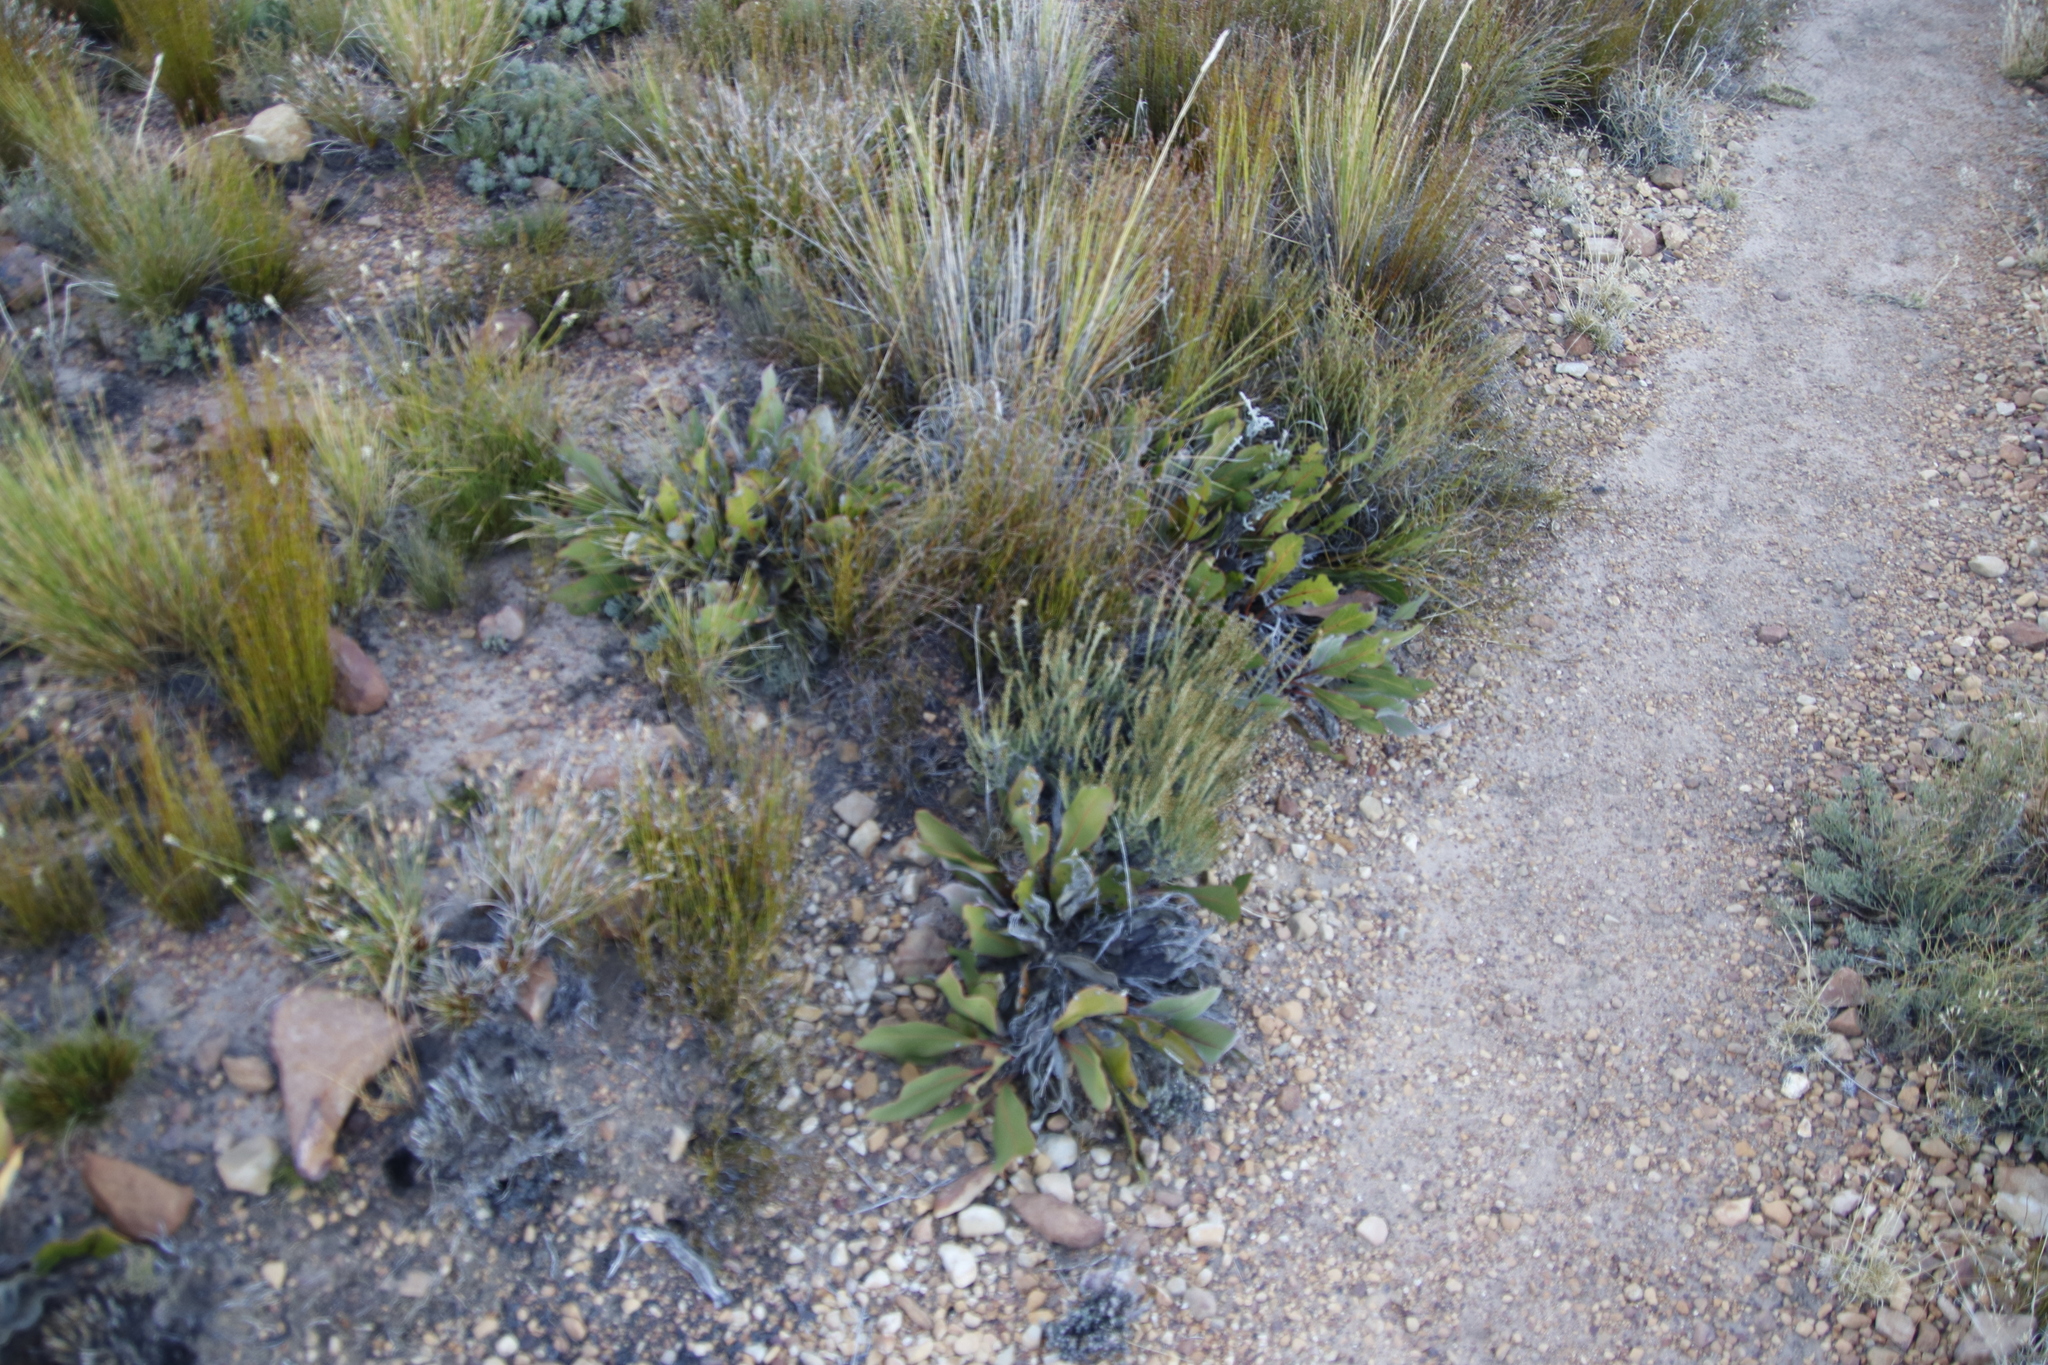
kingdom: Plantae
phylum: Tracheophyta
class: Magnoliopsida
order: Proteales
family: Proteaceae
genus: Protea
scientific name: Protea scolopendriifolia
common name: Harts-tongue-fern sugarbush
